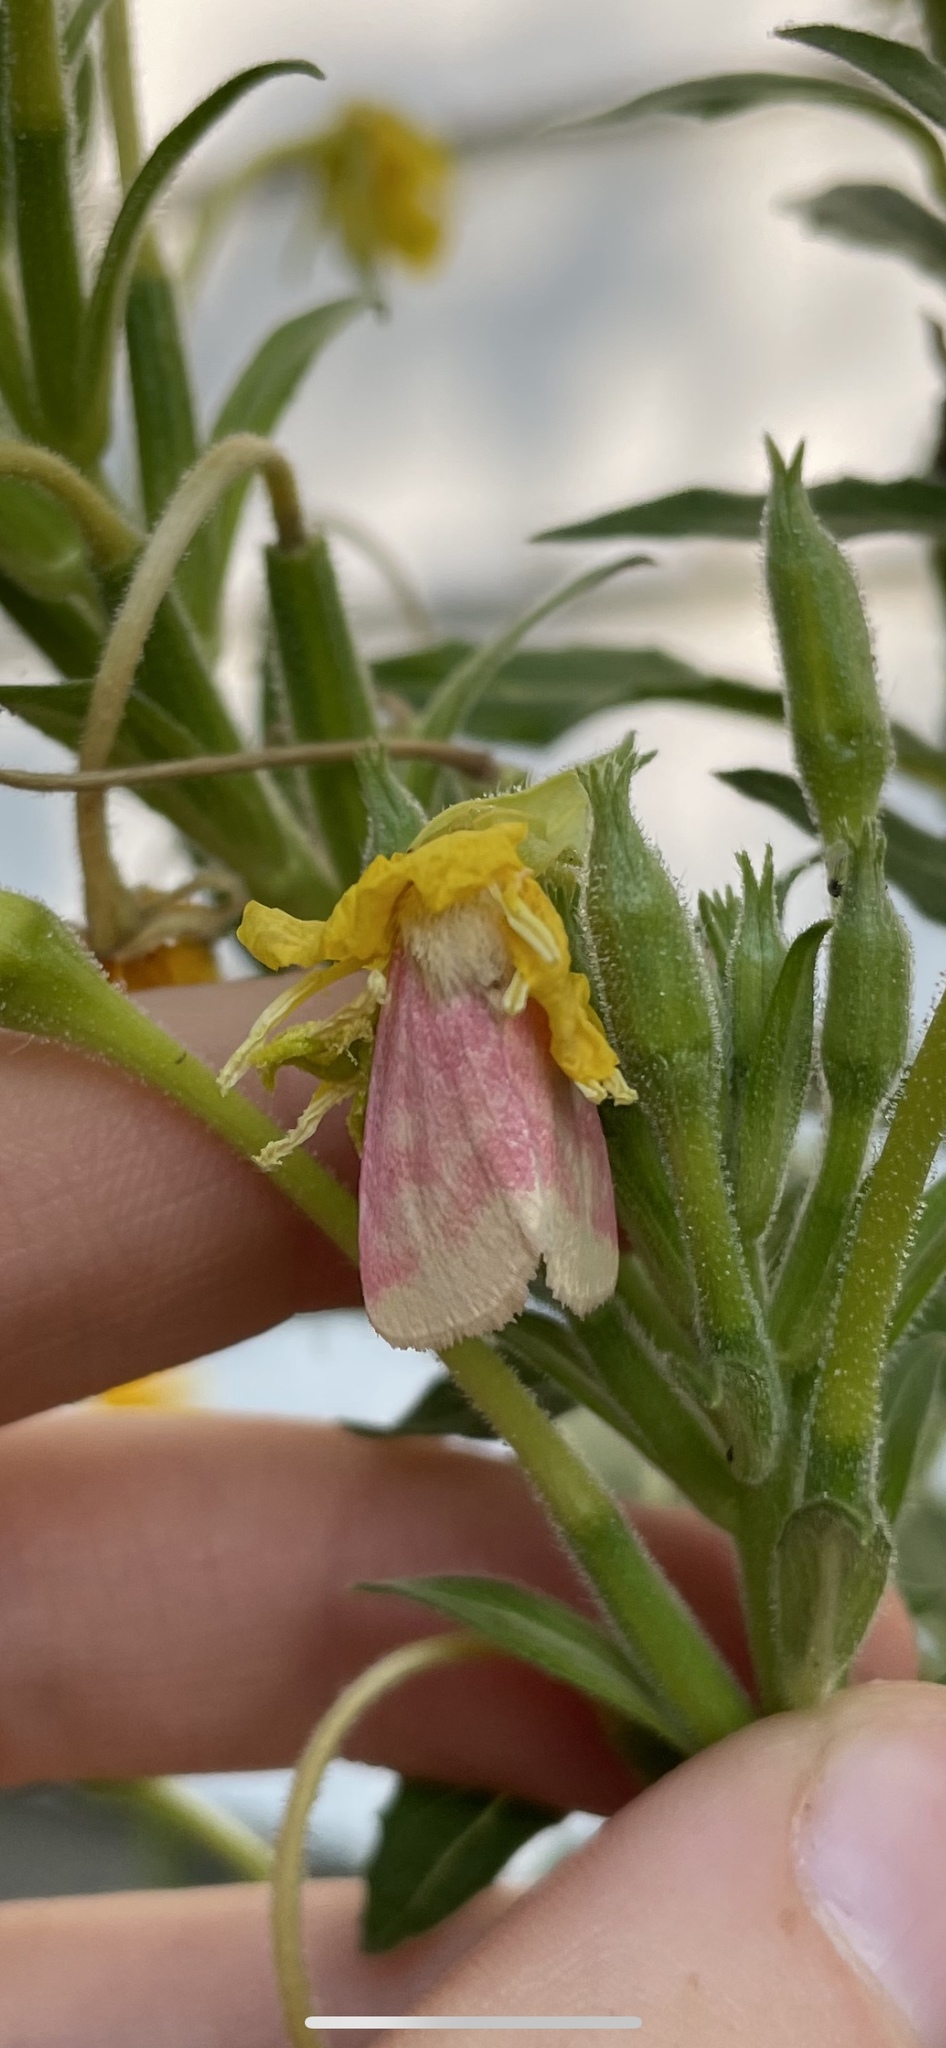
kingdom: Animalia
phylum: Arthropoda
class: Insecta
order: Lepidoptera
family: Noctuidae
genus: Schinia
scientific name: Schinia florida
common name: Primrose moth
